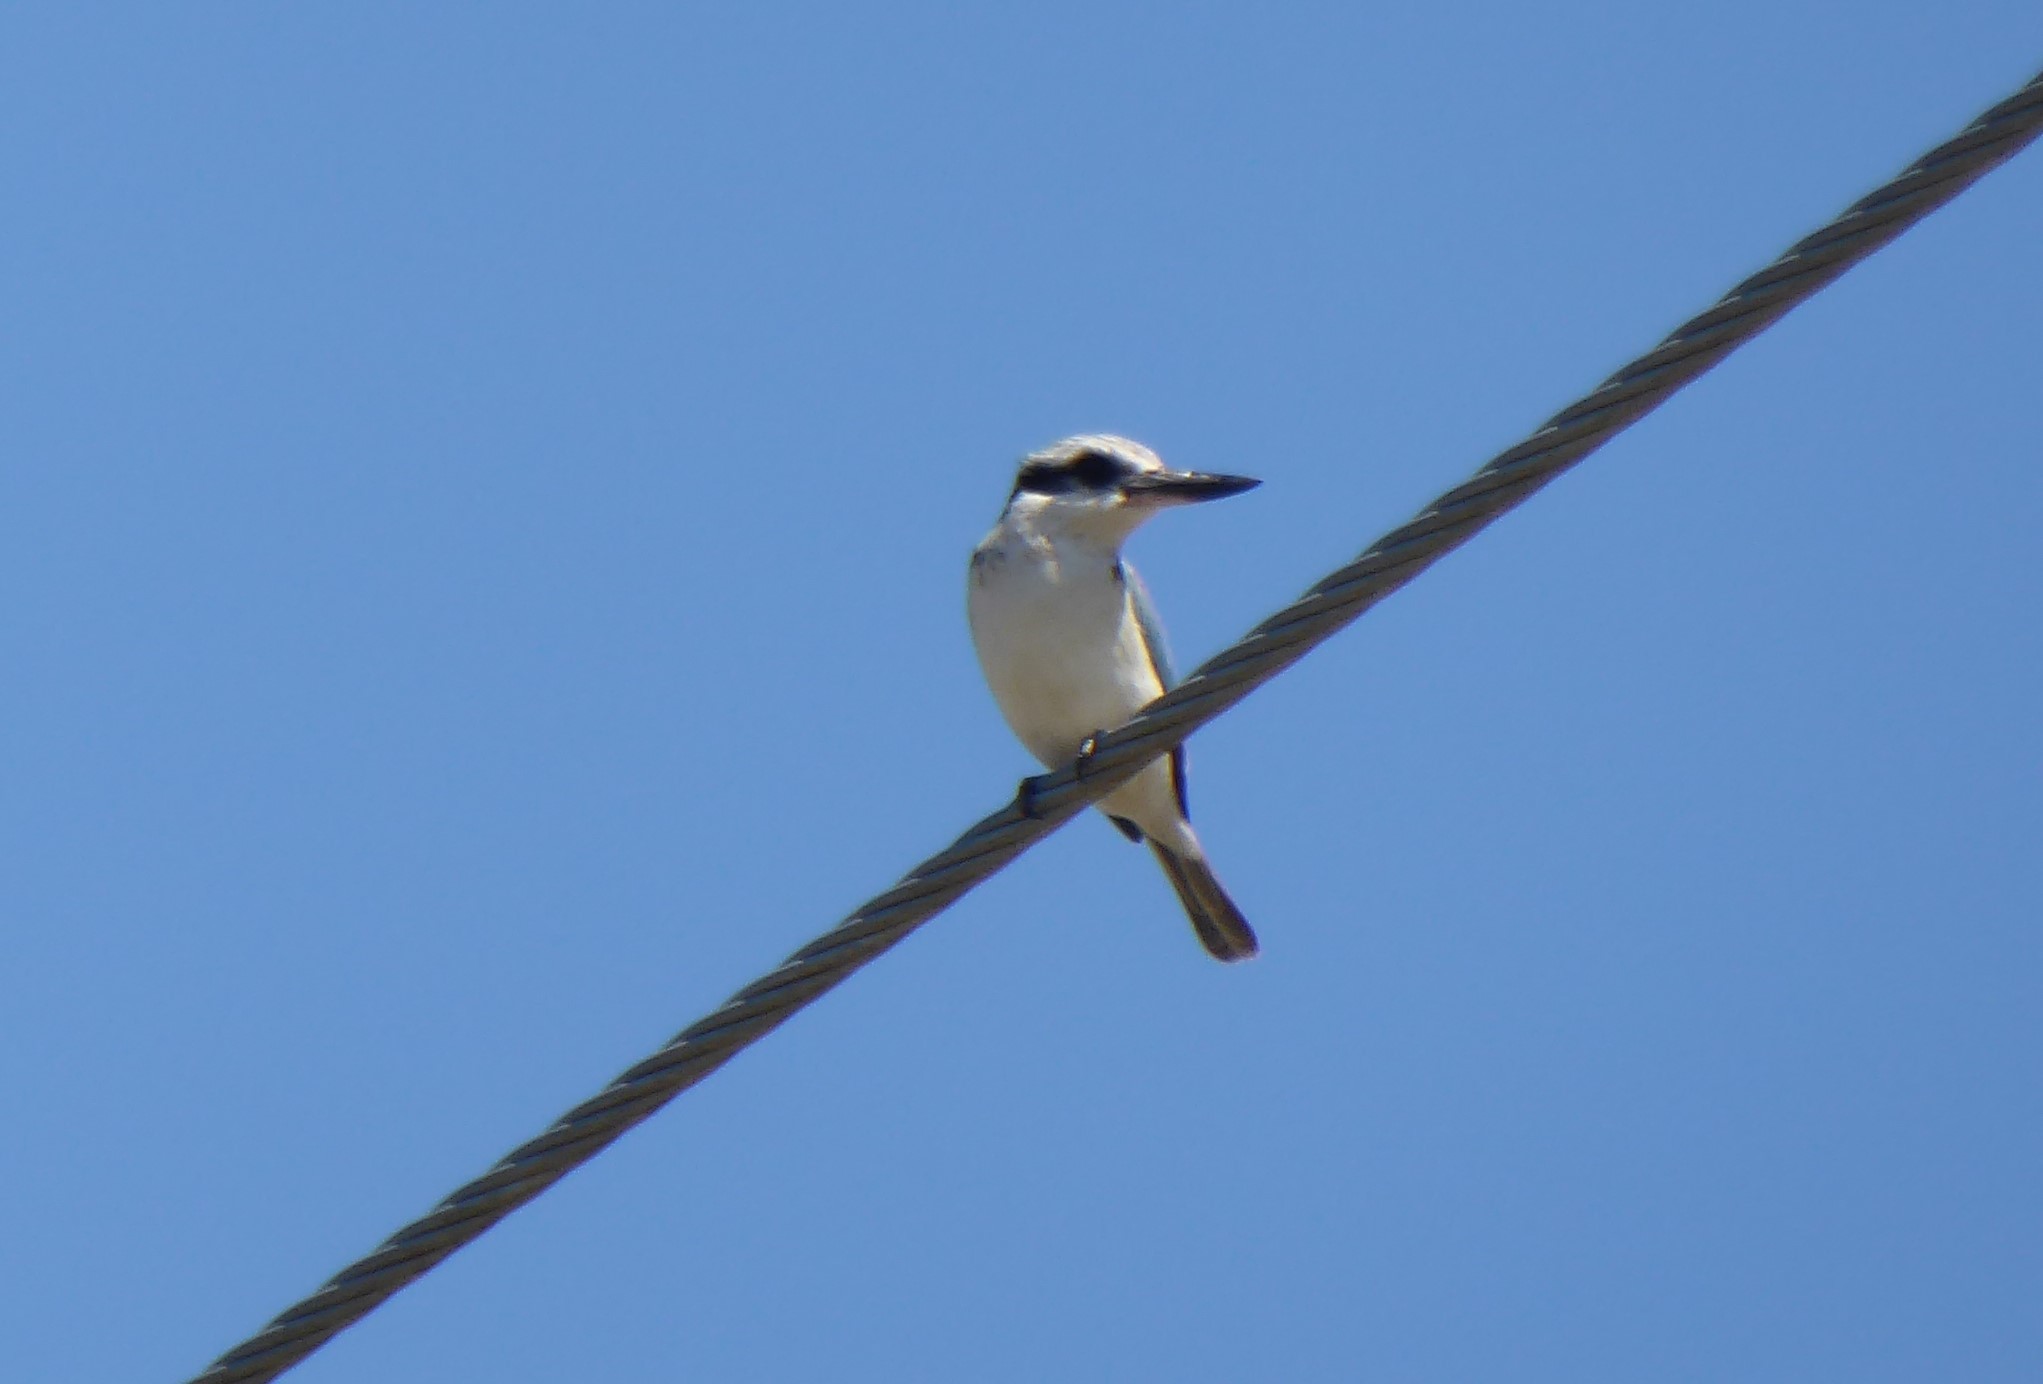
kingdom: Animalia
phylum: Chordata
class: Aves
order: Coraciiformes
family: Alcedinidae
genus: Todiramphus
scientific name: Todiramphus pyrrhopygius
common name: Red-backed kingfisher
